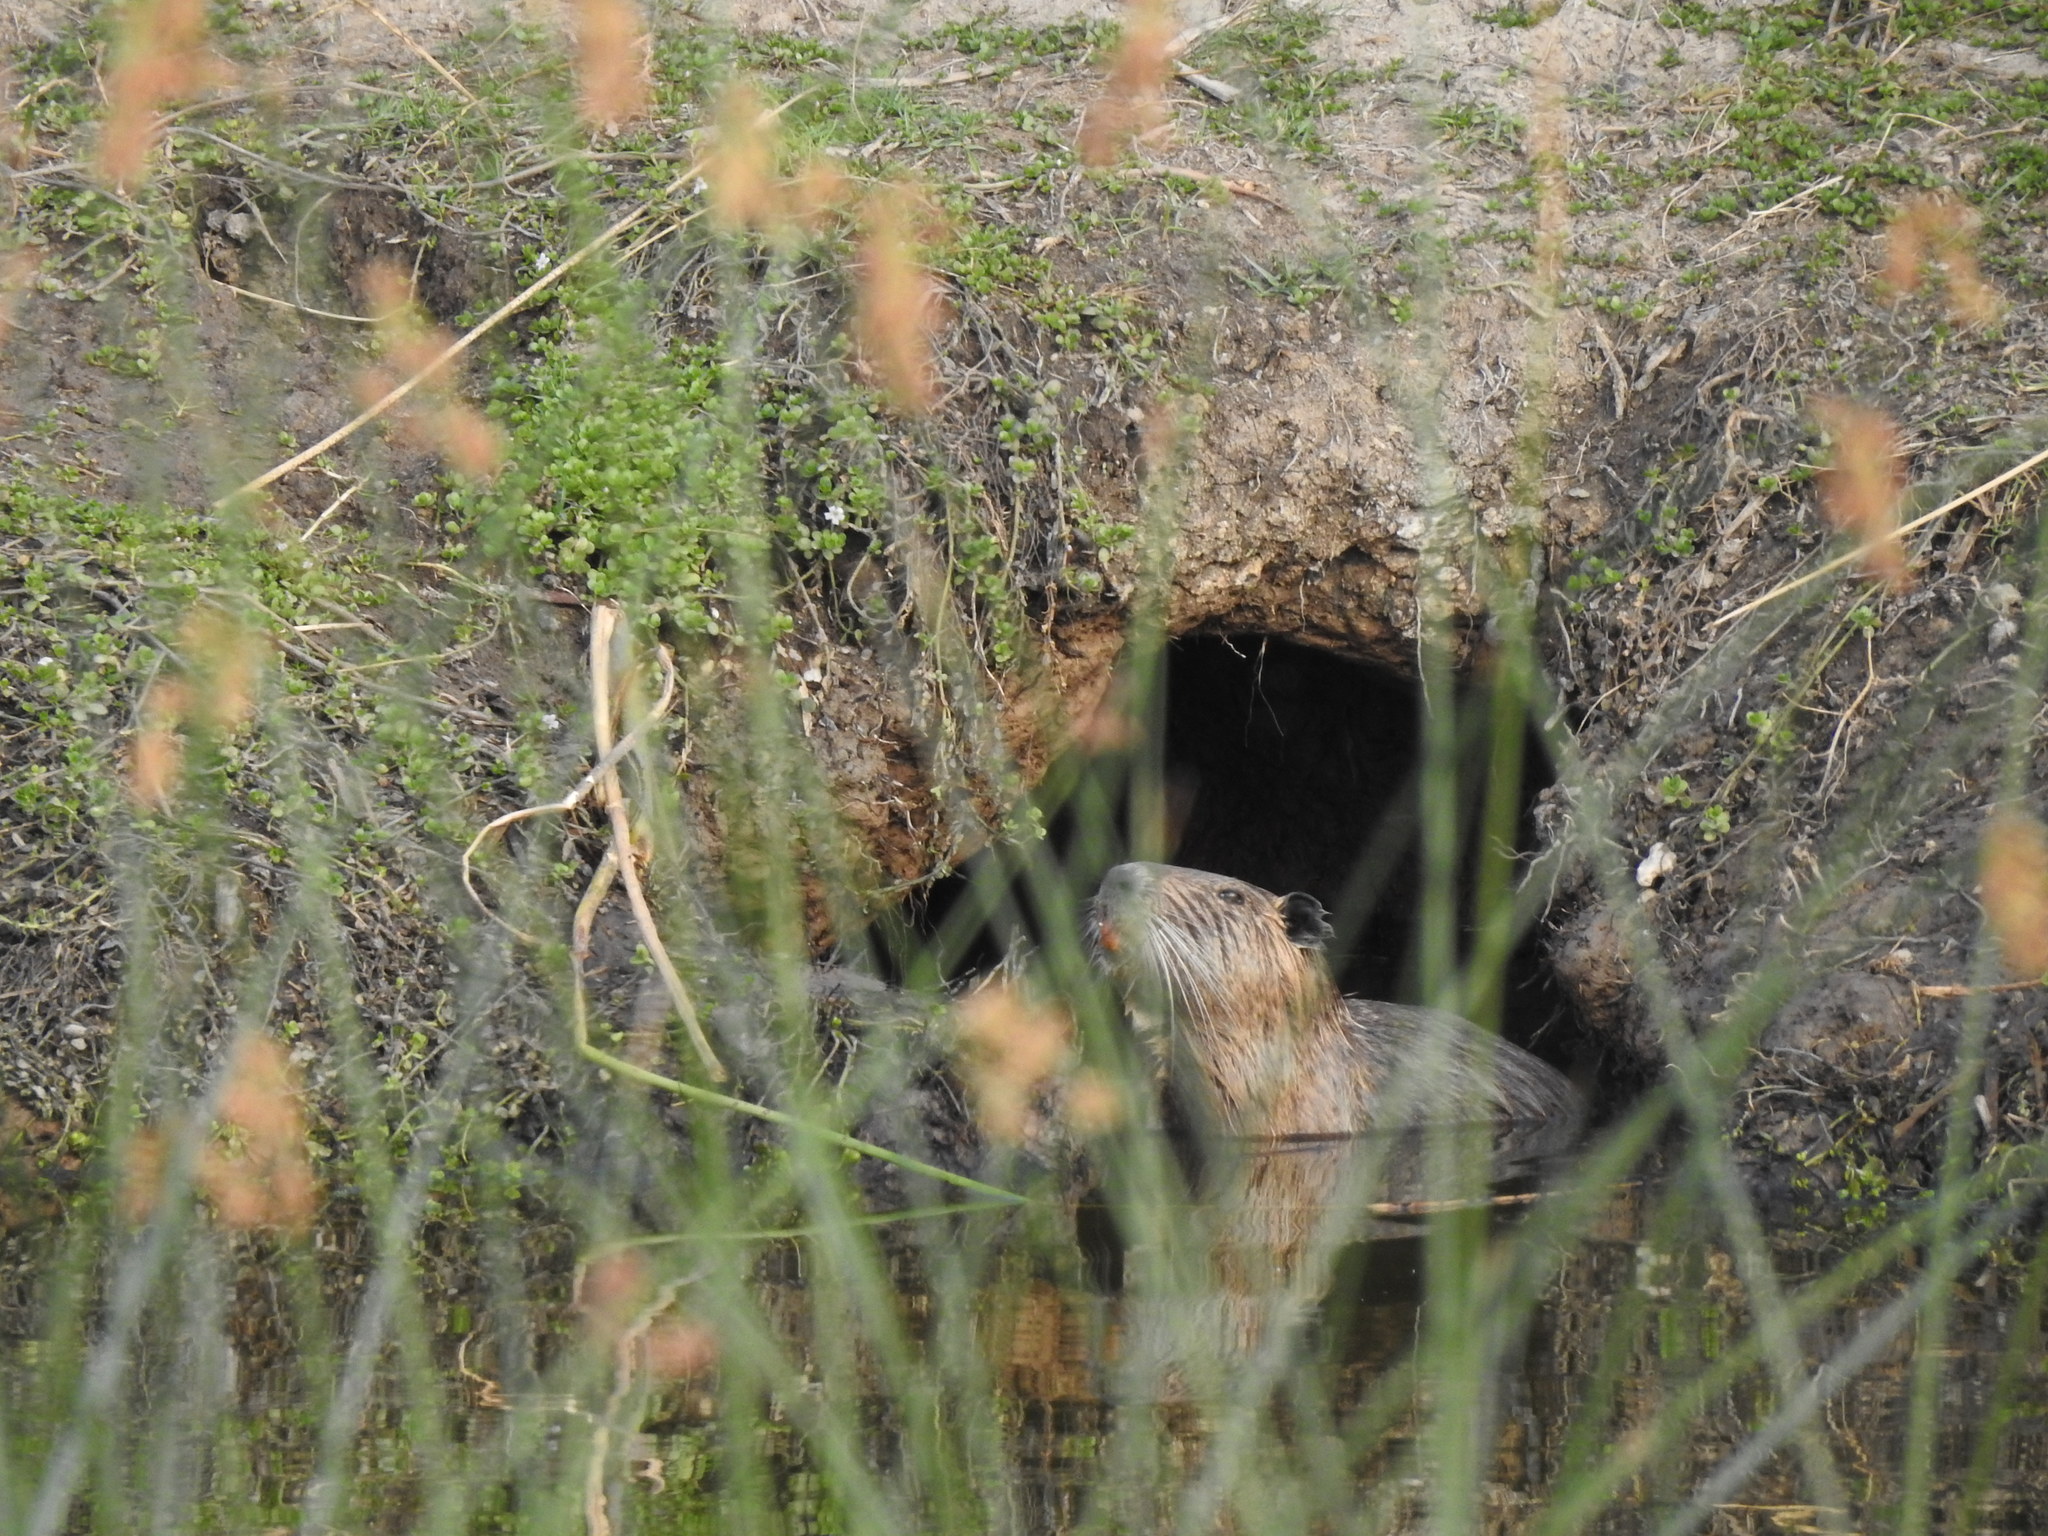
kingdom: Animalia
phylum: Chordata
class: Mammalia
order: Rodentia
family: Myocastoridae
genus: Myocastor
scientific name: Myocastor coypus
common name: Coypu
